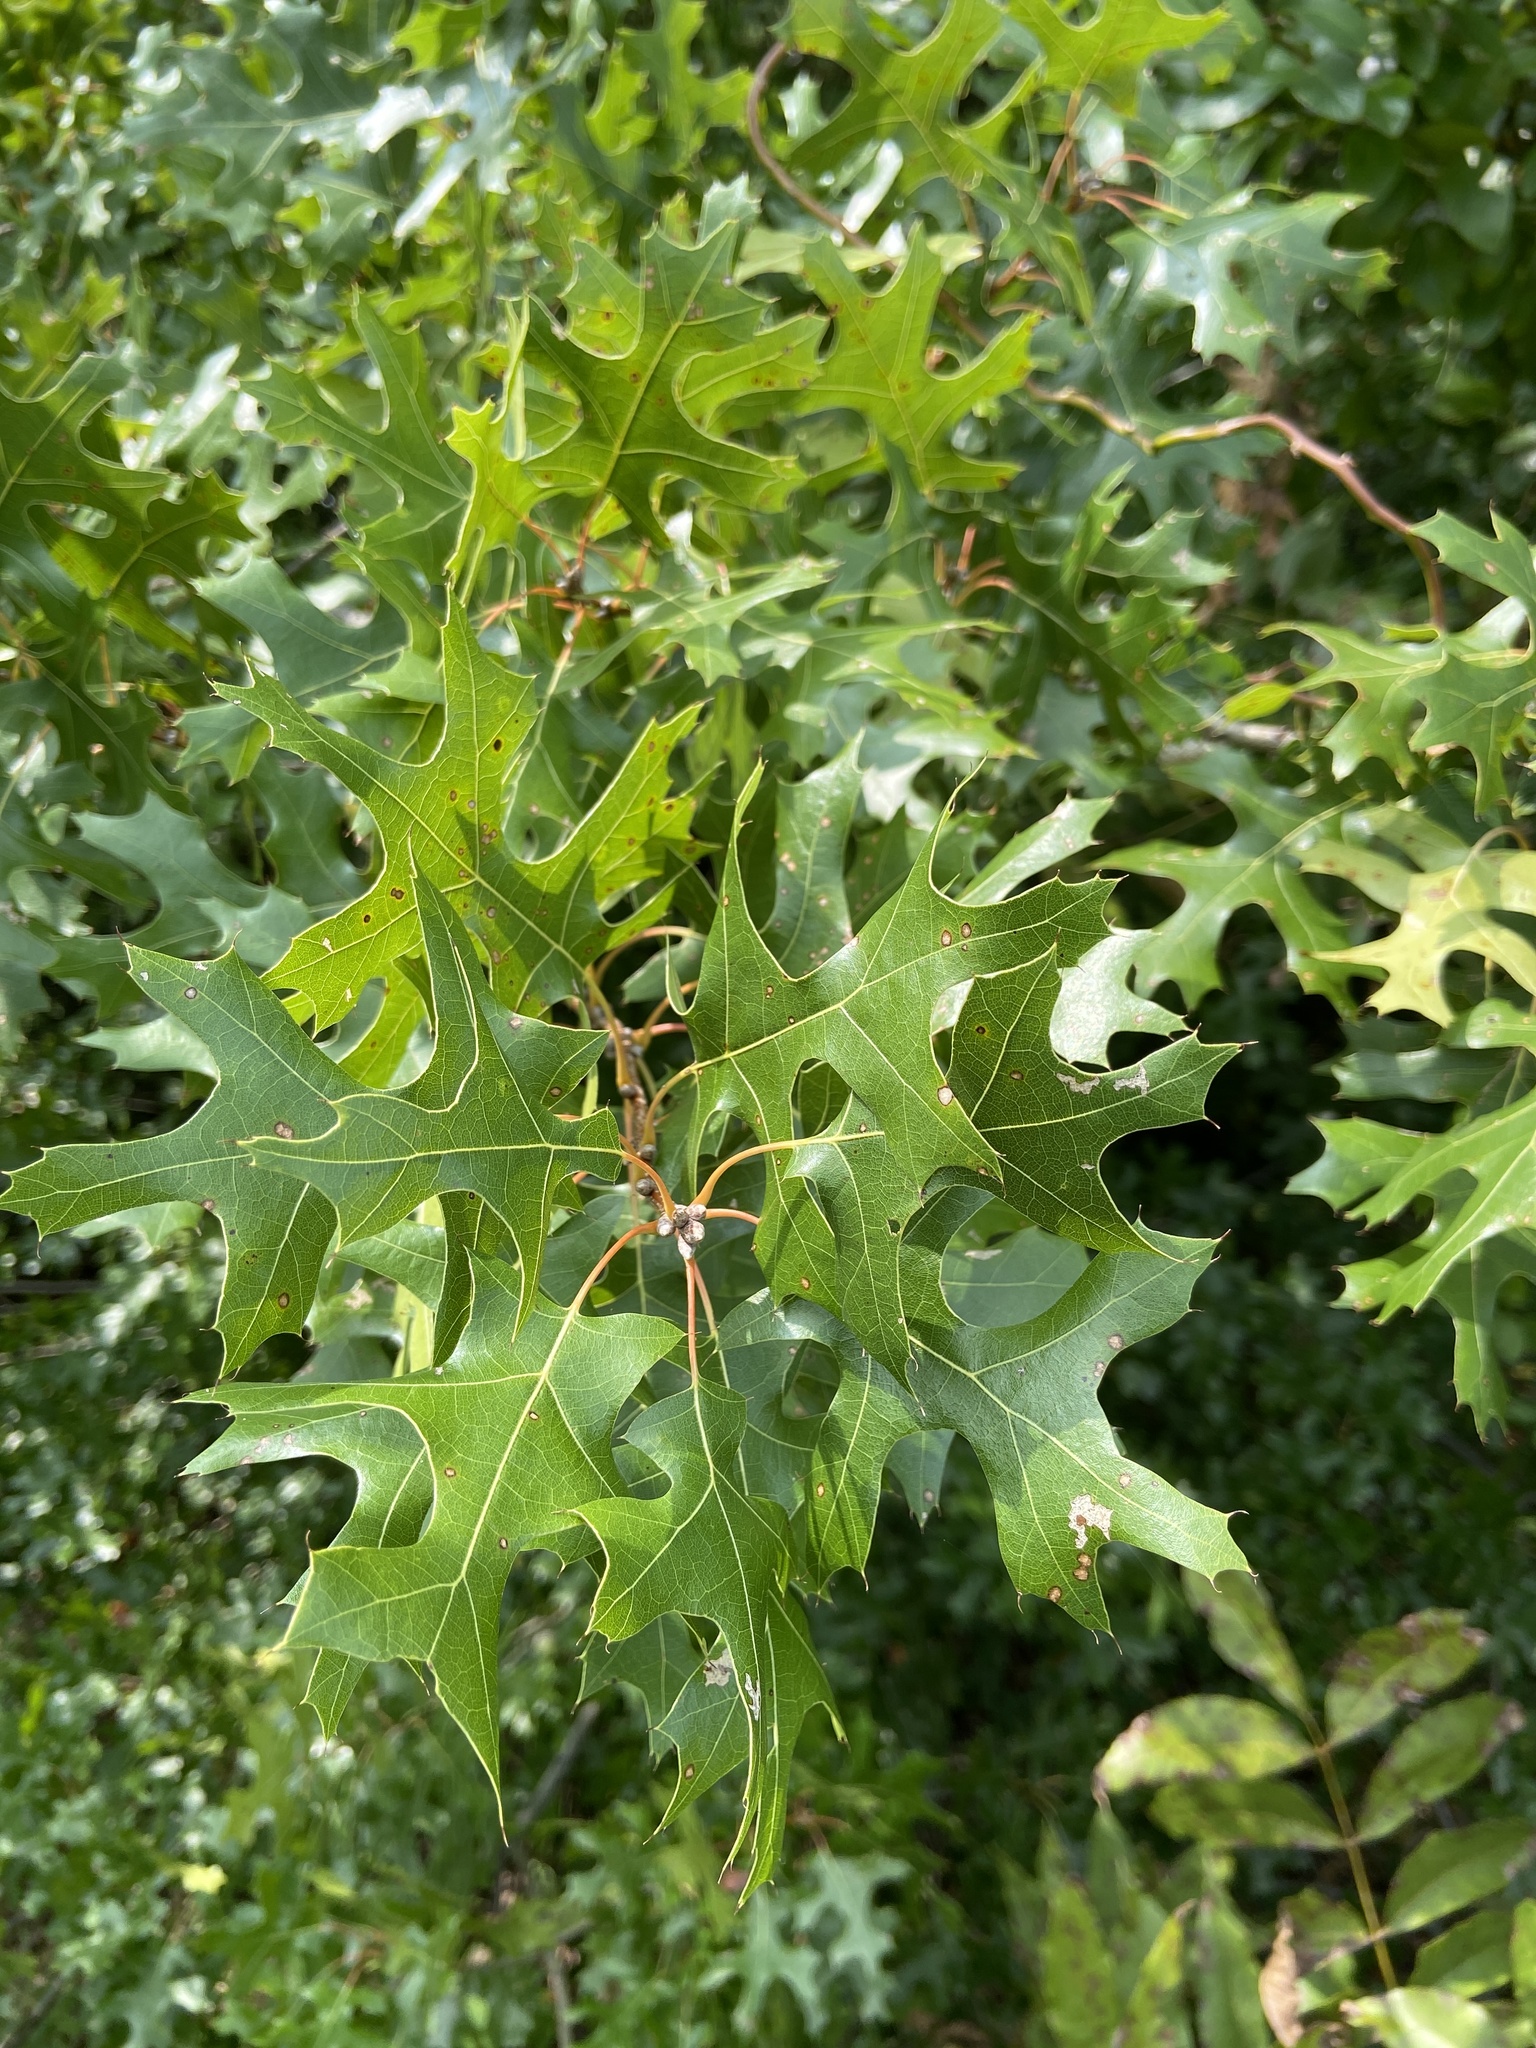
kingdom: Plantae
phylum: Tracheophyta
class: Magnoliopsida
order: Fagales
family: Fagaceae
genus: Quercus
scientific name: Quercus buckleyi
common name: Buckley oak
